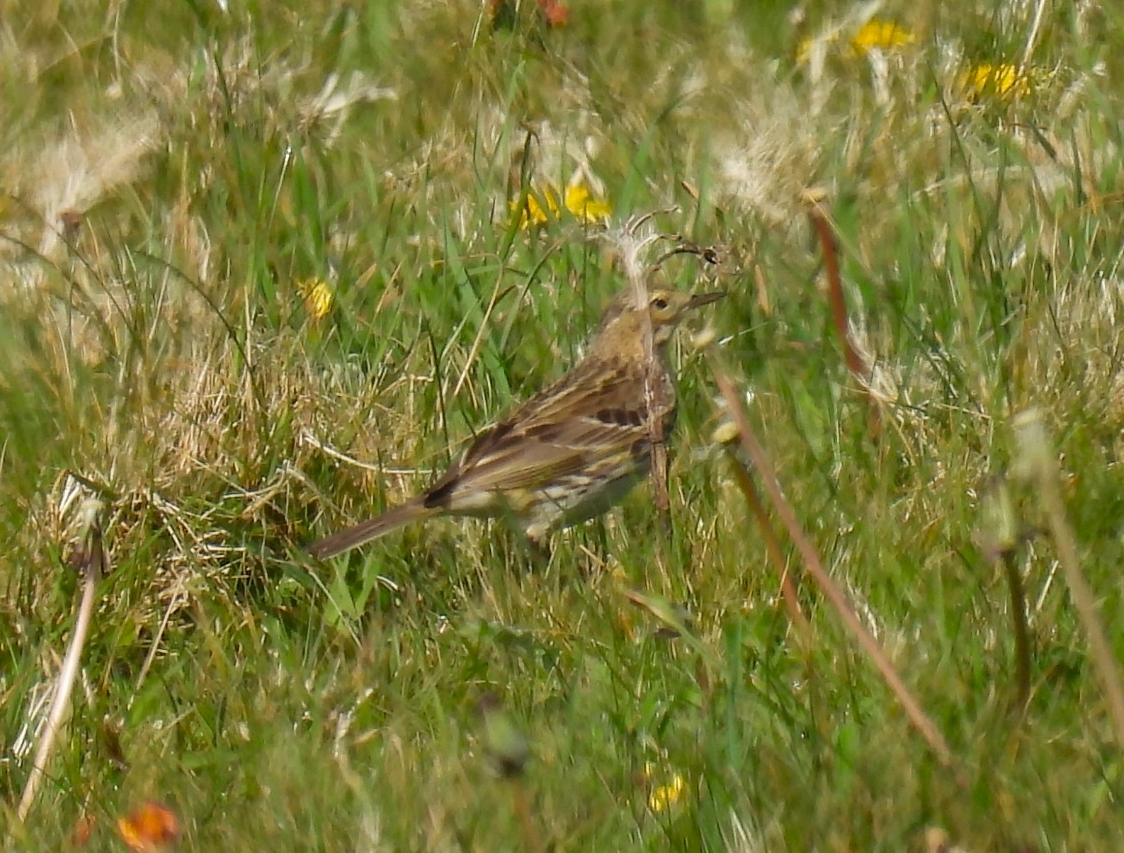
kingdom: Animalia
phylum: Chordata
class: Aves
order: Passeriformes
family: Motacillidae
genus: Anthus
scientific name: Anthus pratensis
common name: Meadow pipit
